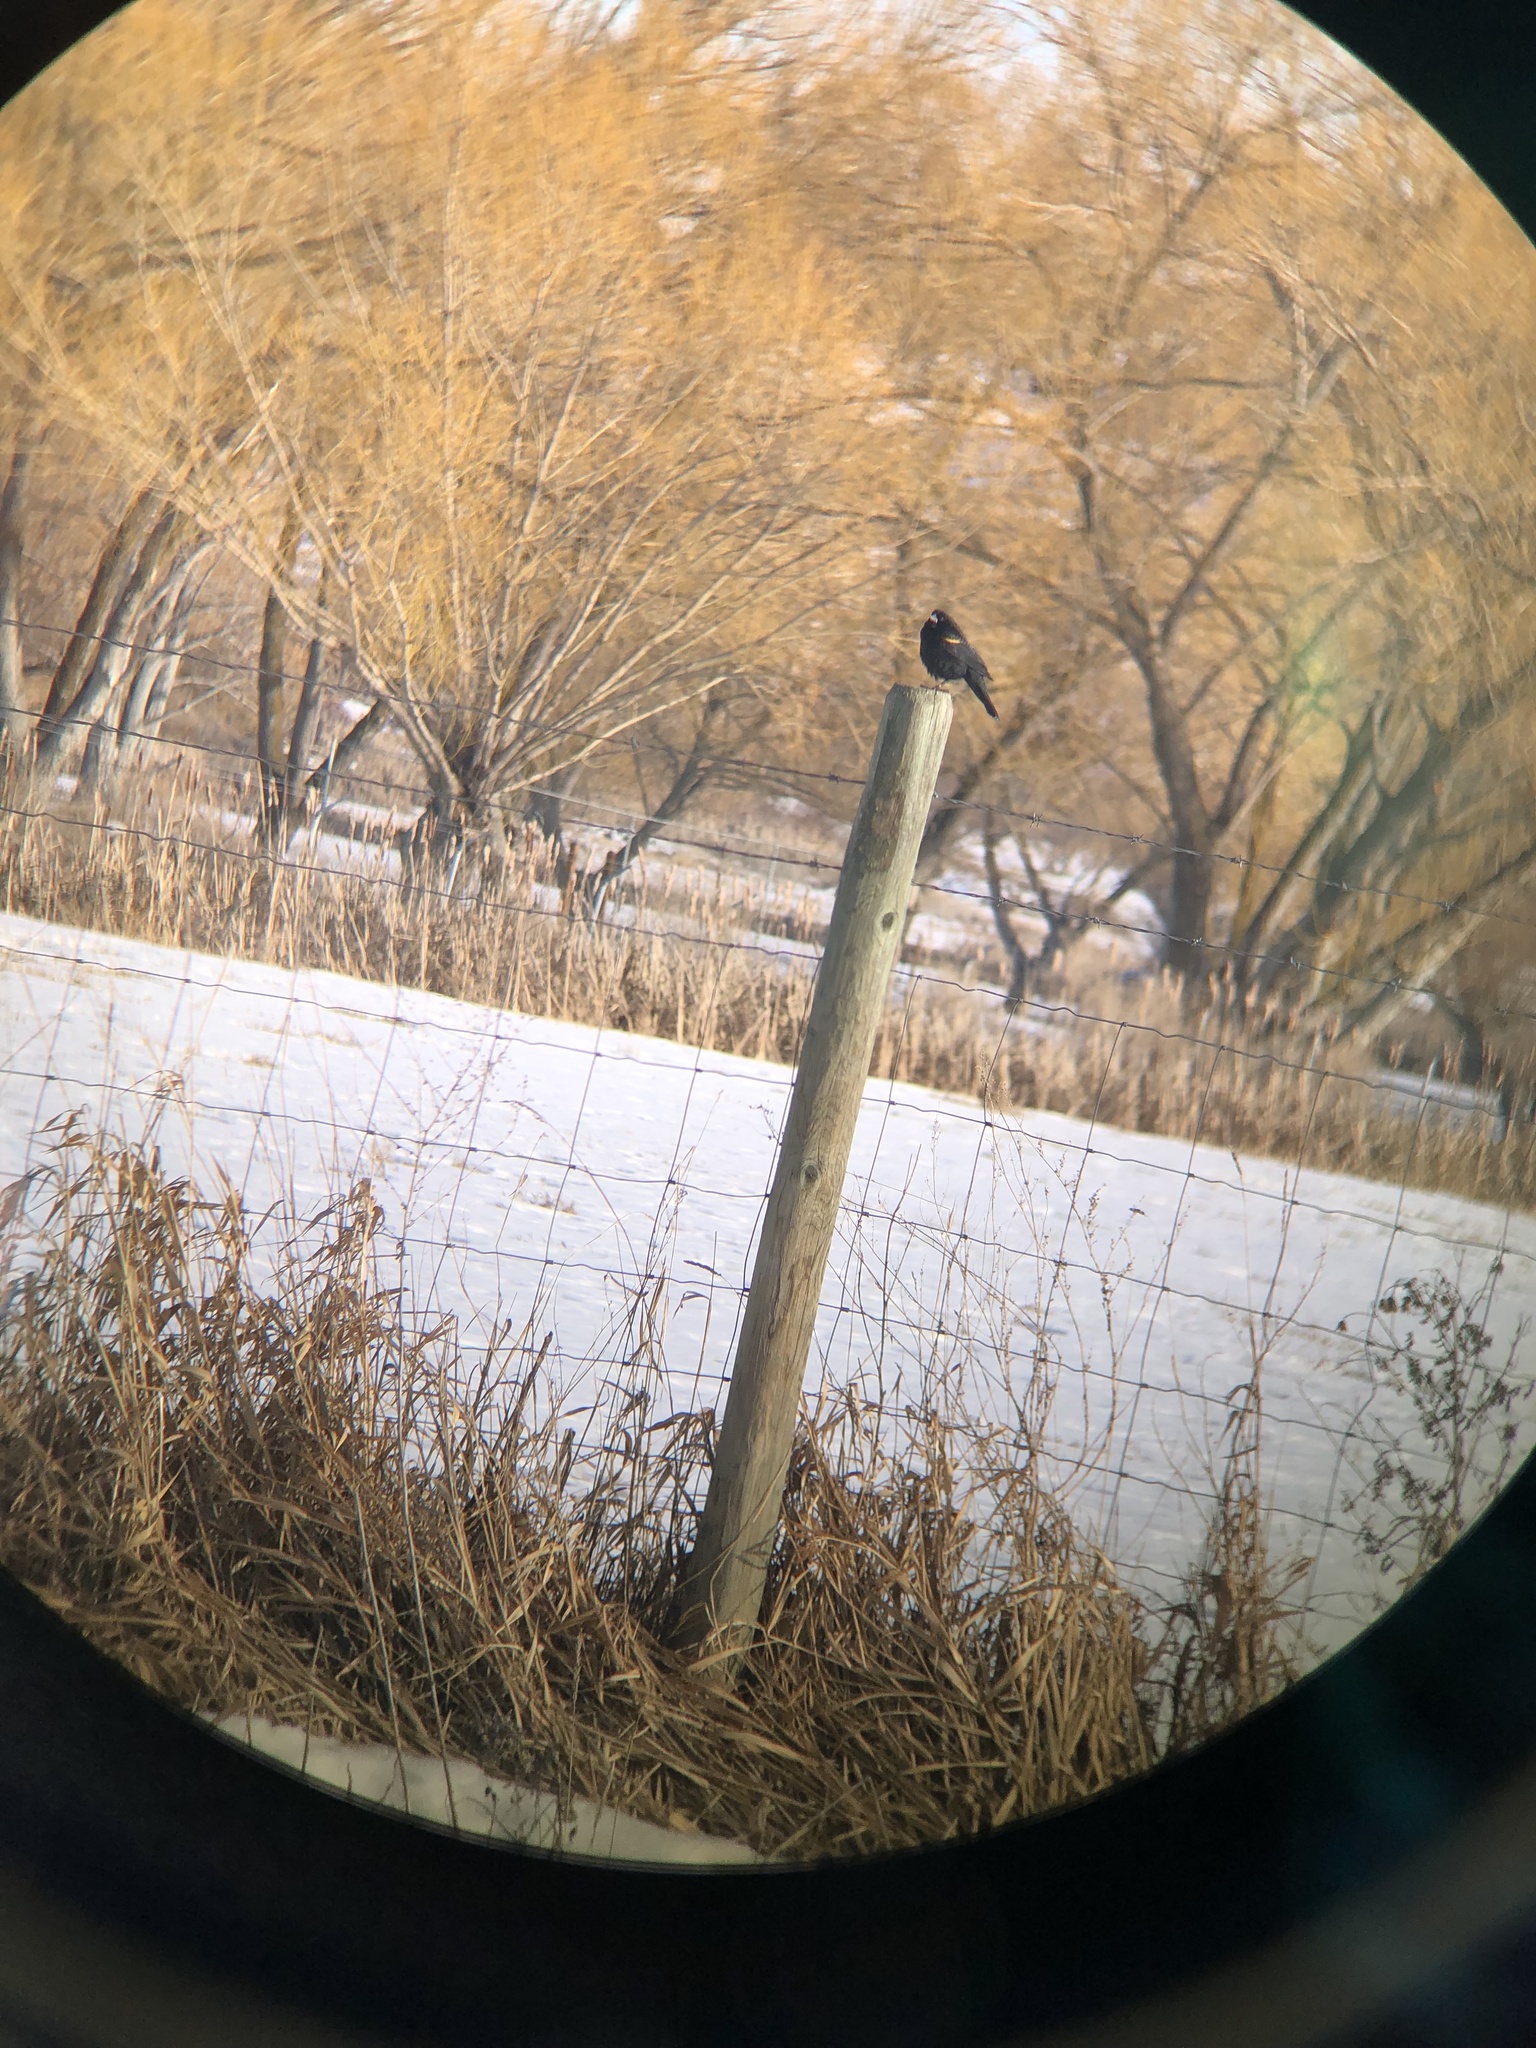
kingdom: Animalia
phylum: Chordata
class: Aves
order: Passeriformes
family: Icteridae
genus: Agelaius
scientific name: Agelaius phoeniceus
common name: Red-winged blackbird
